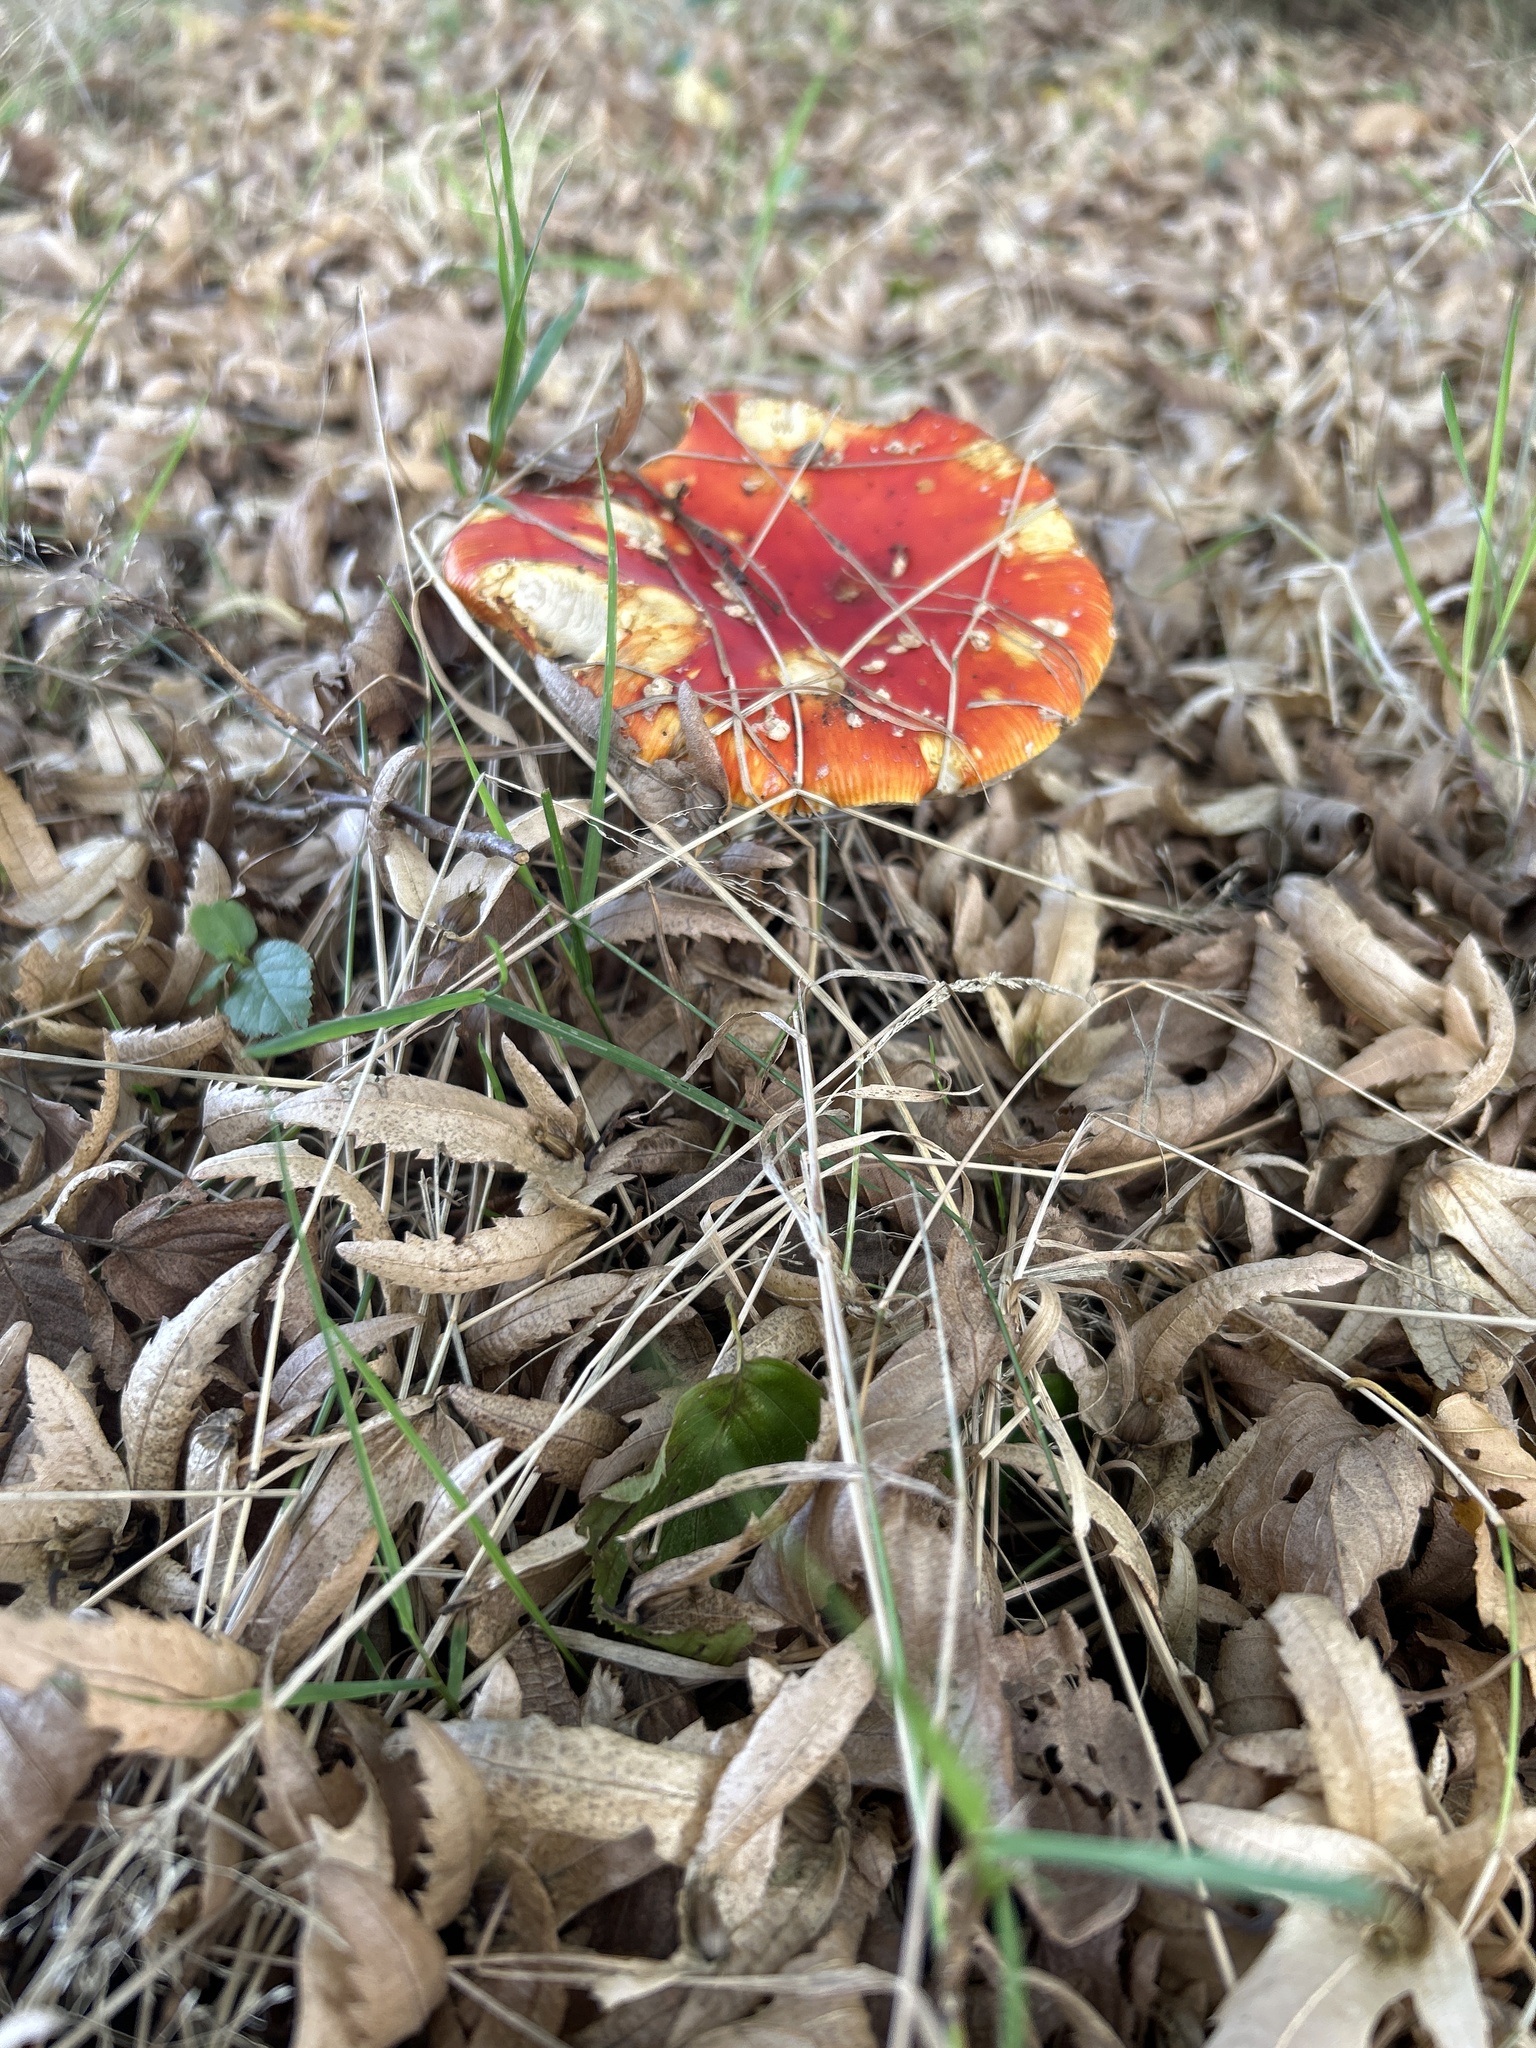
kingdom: Fungi
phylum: Basidiomycota
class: Agaricomycetes
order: Agaricales
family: Amanitaceae
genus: Amanita
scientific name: Amanita muscaria
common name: Fly agaric
